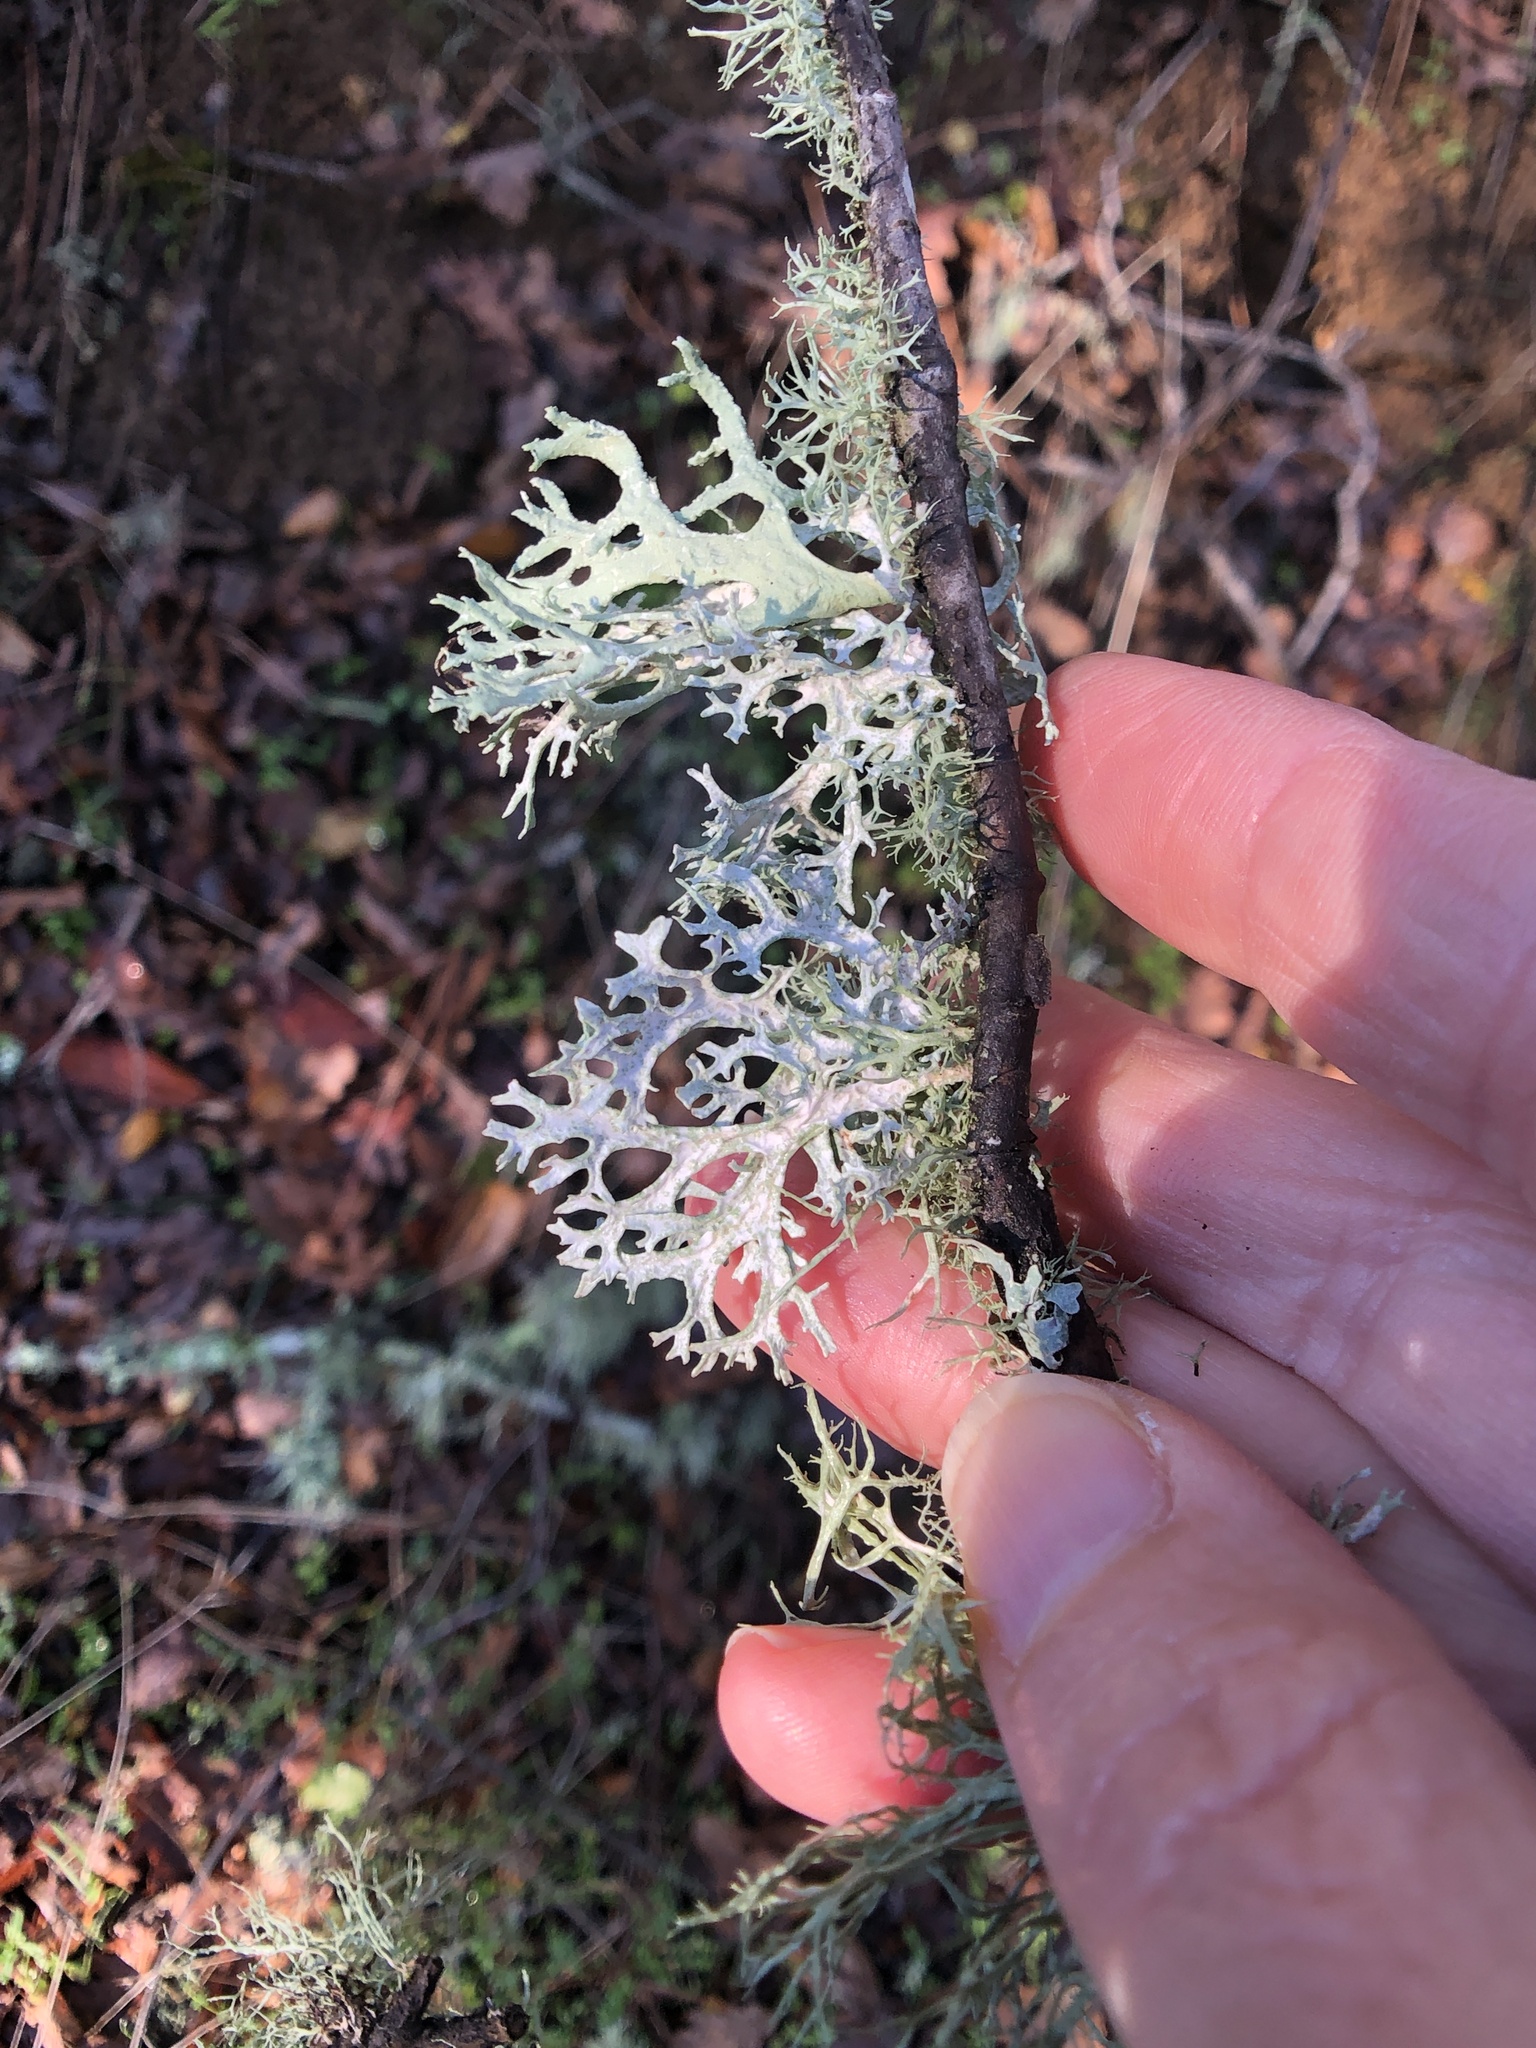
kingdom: Fungi
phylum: Ascomycota
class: Lecanoromycetes
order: Lecanorales
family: Parmeliaceae
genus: Evernia
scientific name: Evernia prunastri
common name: Oak moss
